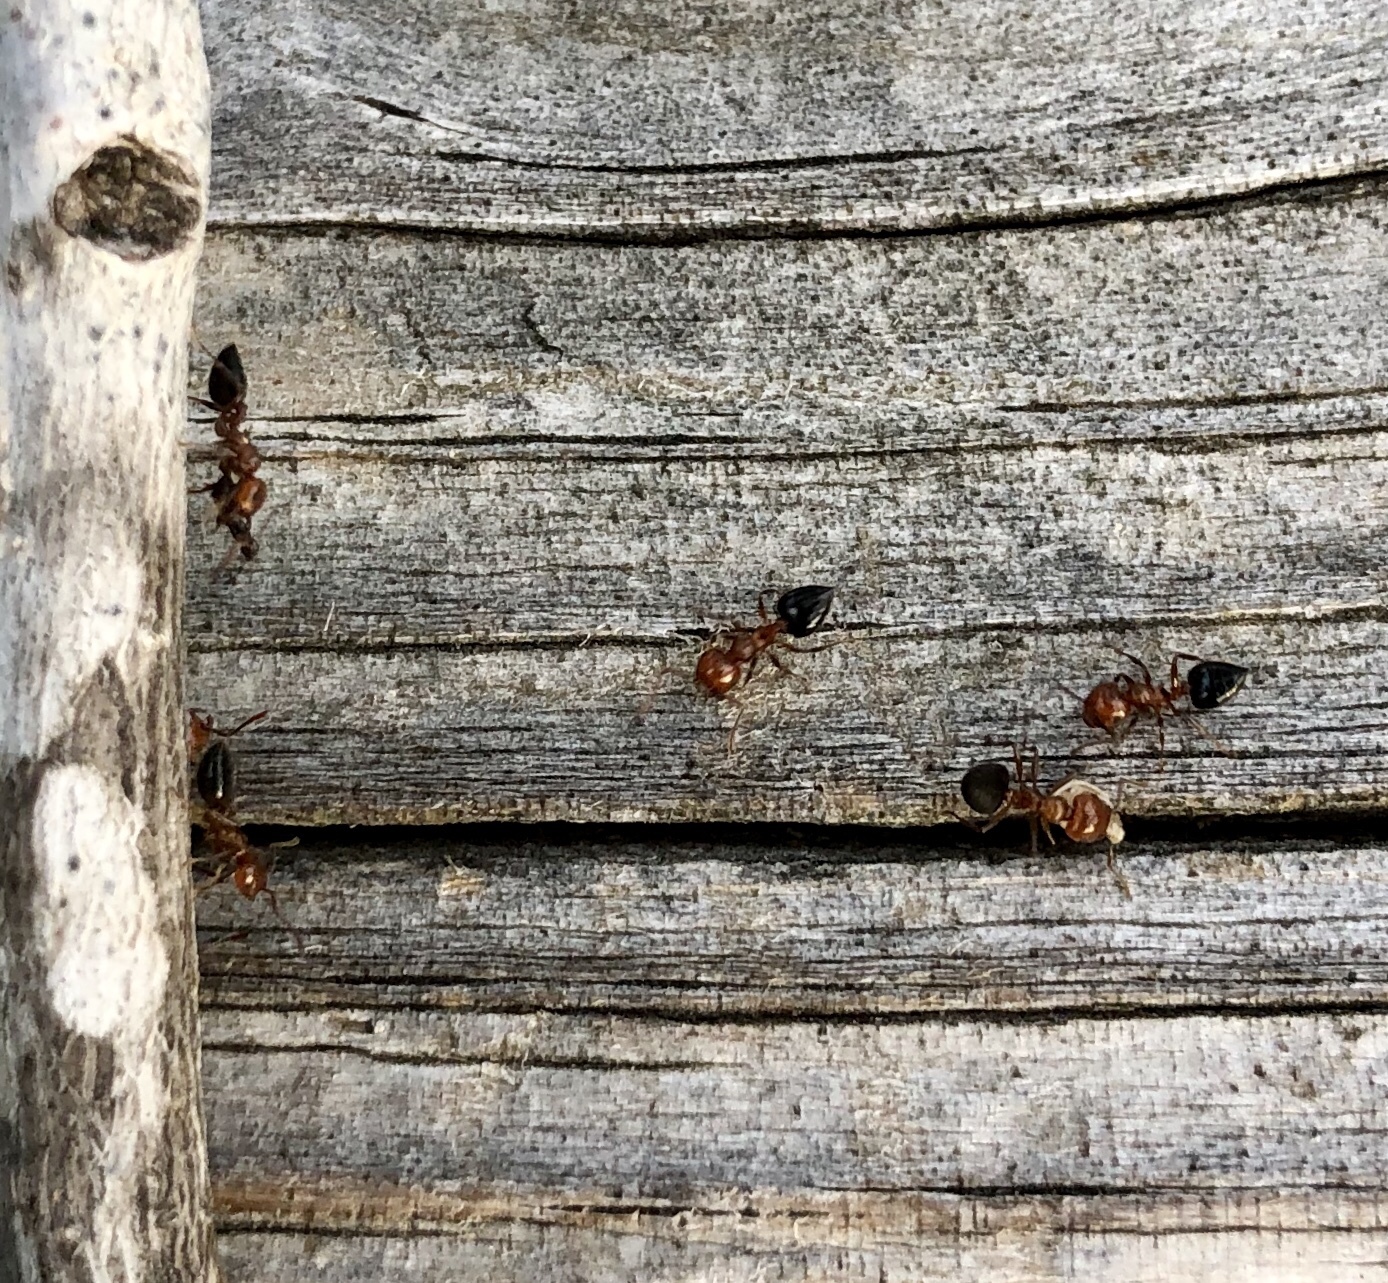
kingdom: Animalia
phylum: Arthropoda
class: Insecta
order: Hymenoptera
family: Formicidae
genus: Crematogaster
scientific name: Crematogaster laeviuscula
